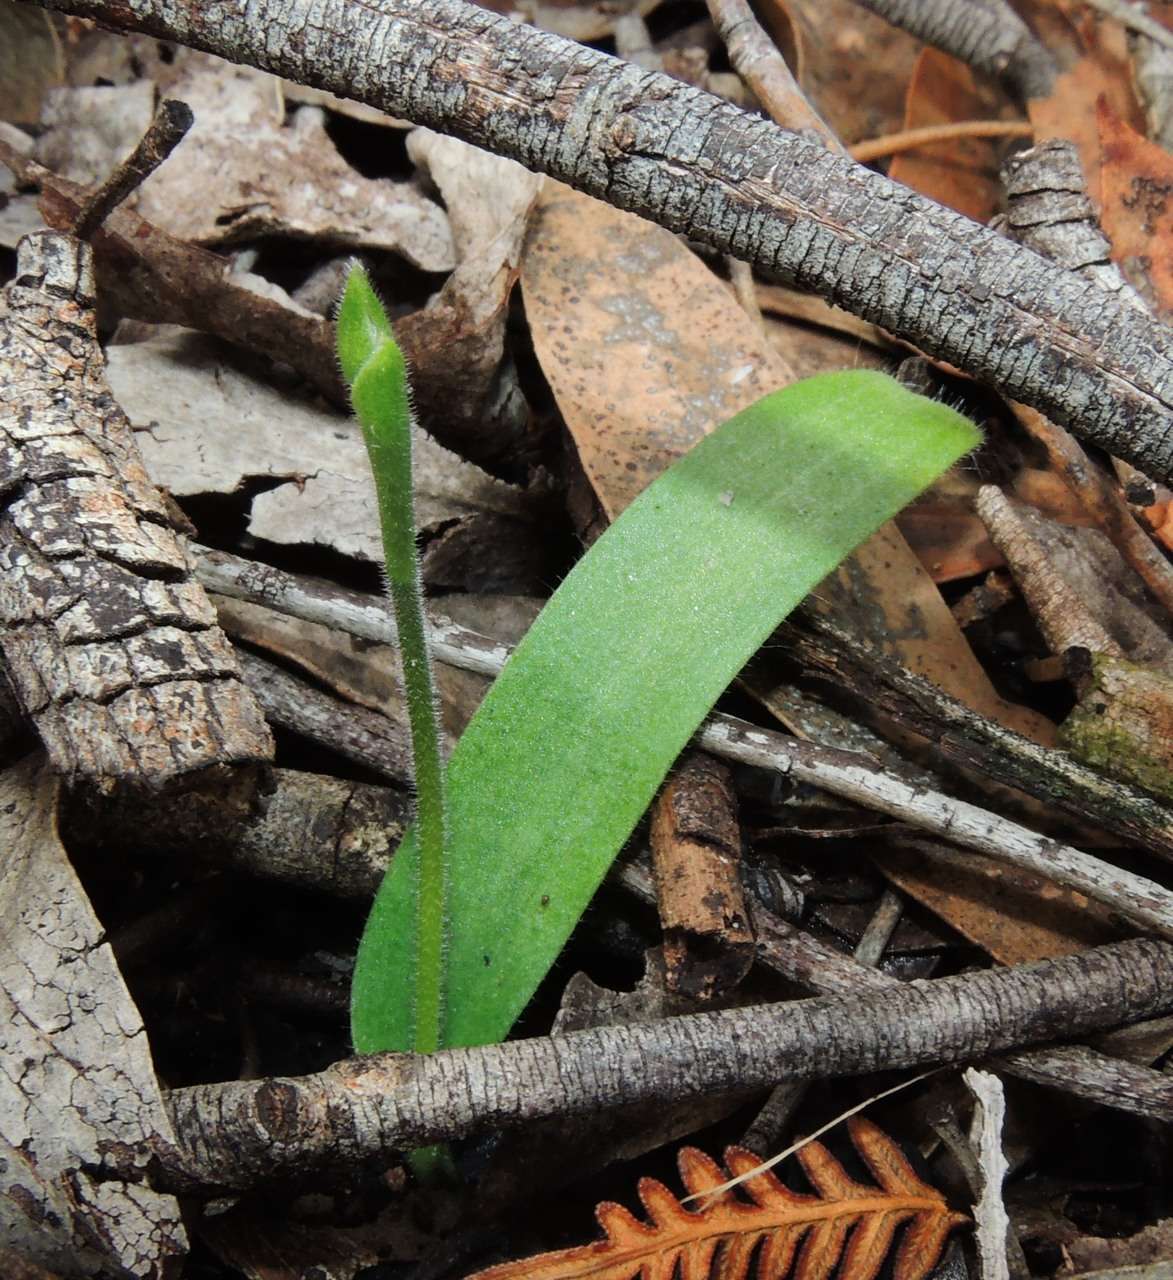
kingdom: Plantae
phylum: Tracheophyta
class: Liliopsida
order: Asparagales
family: Orchidaceae
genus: Caladenia
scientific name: Caladenia major
